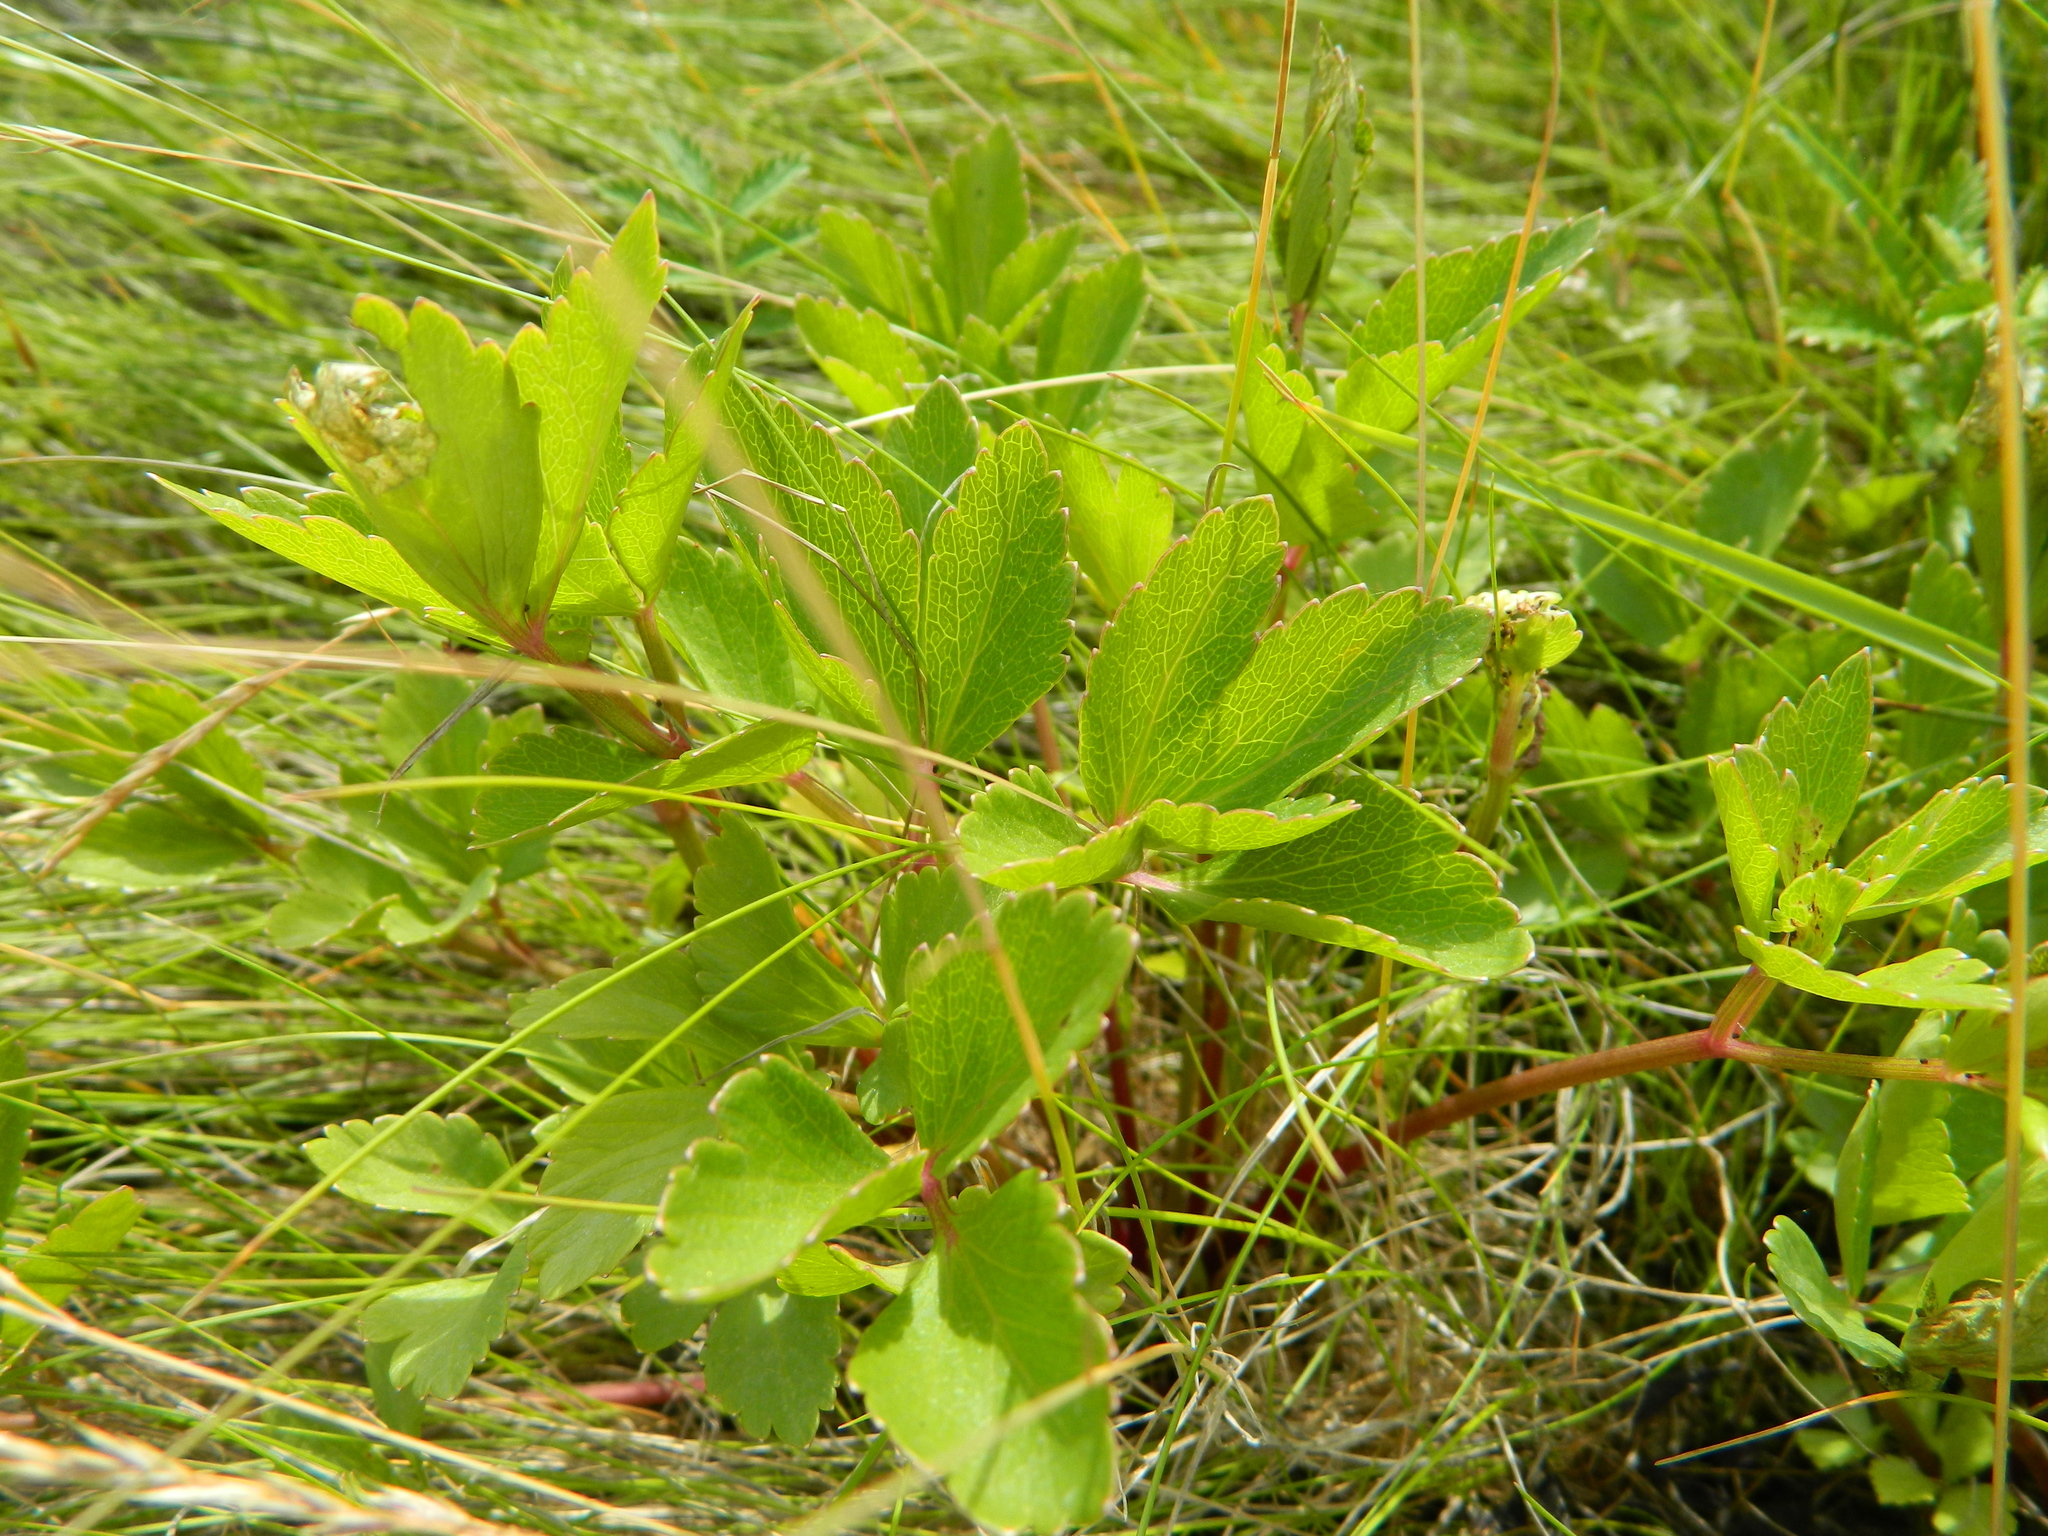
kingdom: Plantae
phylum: Tracheophyta
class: Magnoliopsida
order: Apiales
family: Apiaceae
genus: Ligusticum
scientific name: Ligusticum scothicum
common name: Beach lovage
